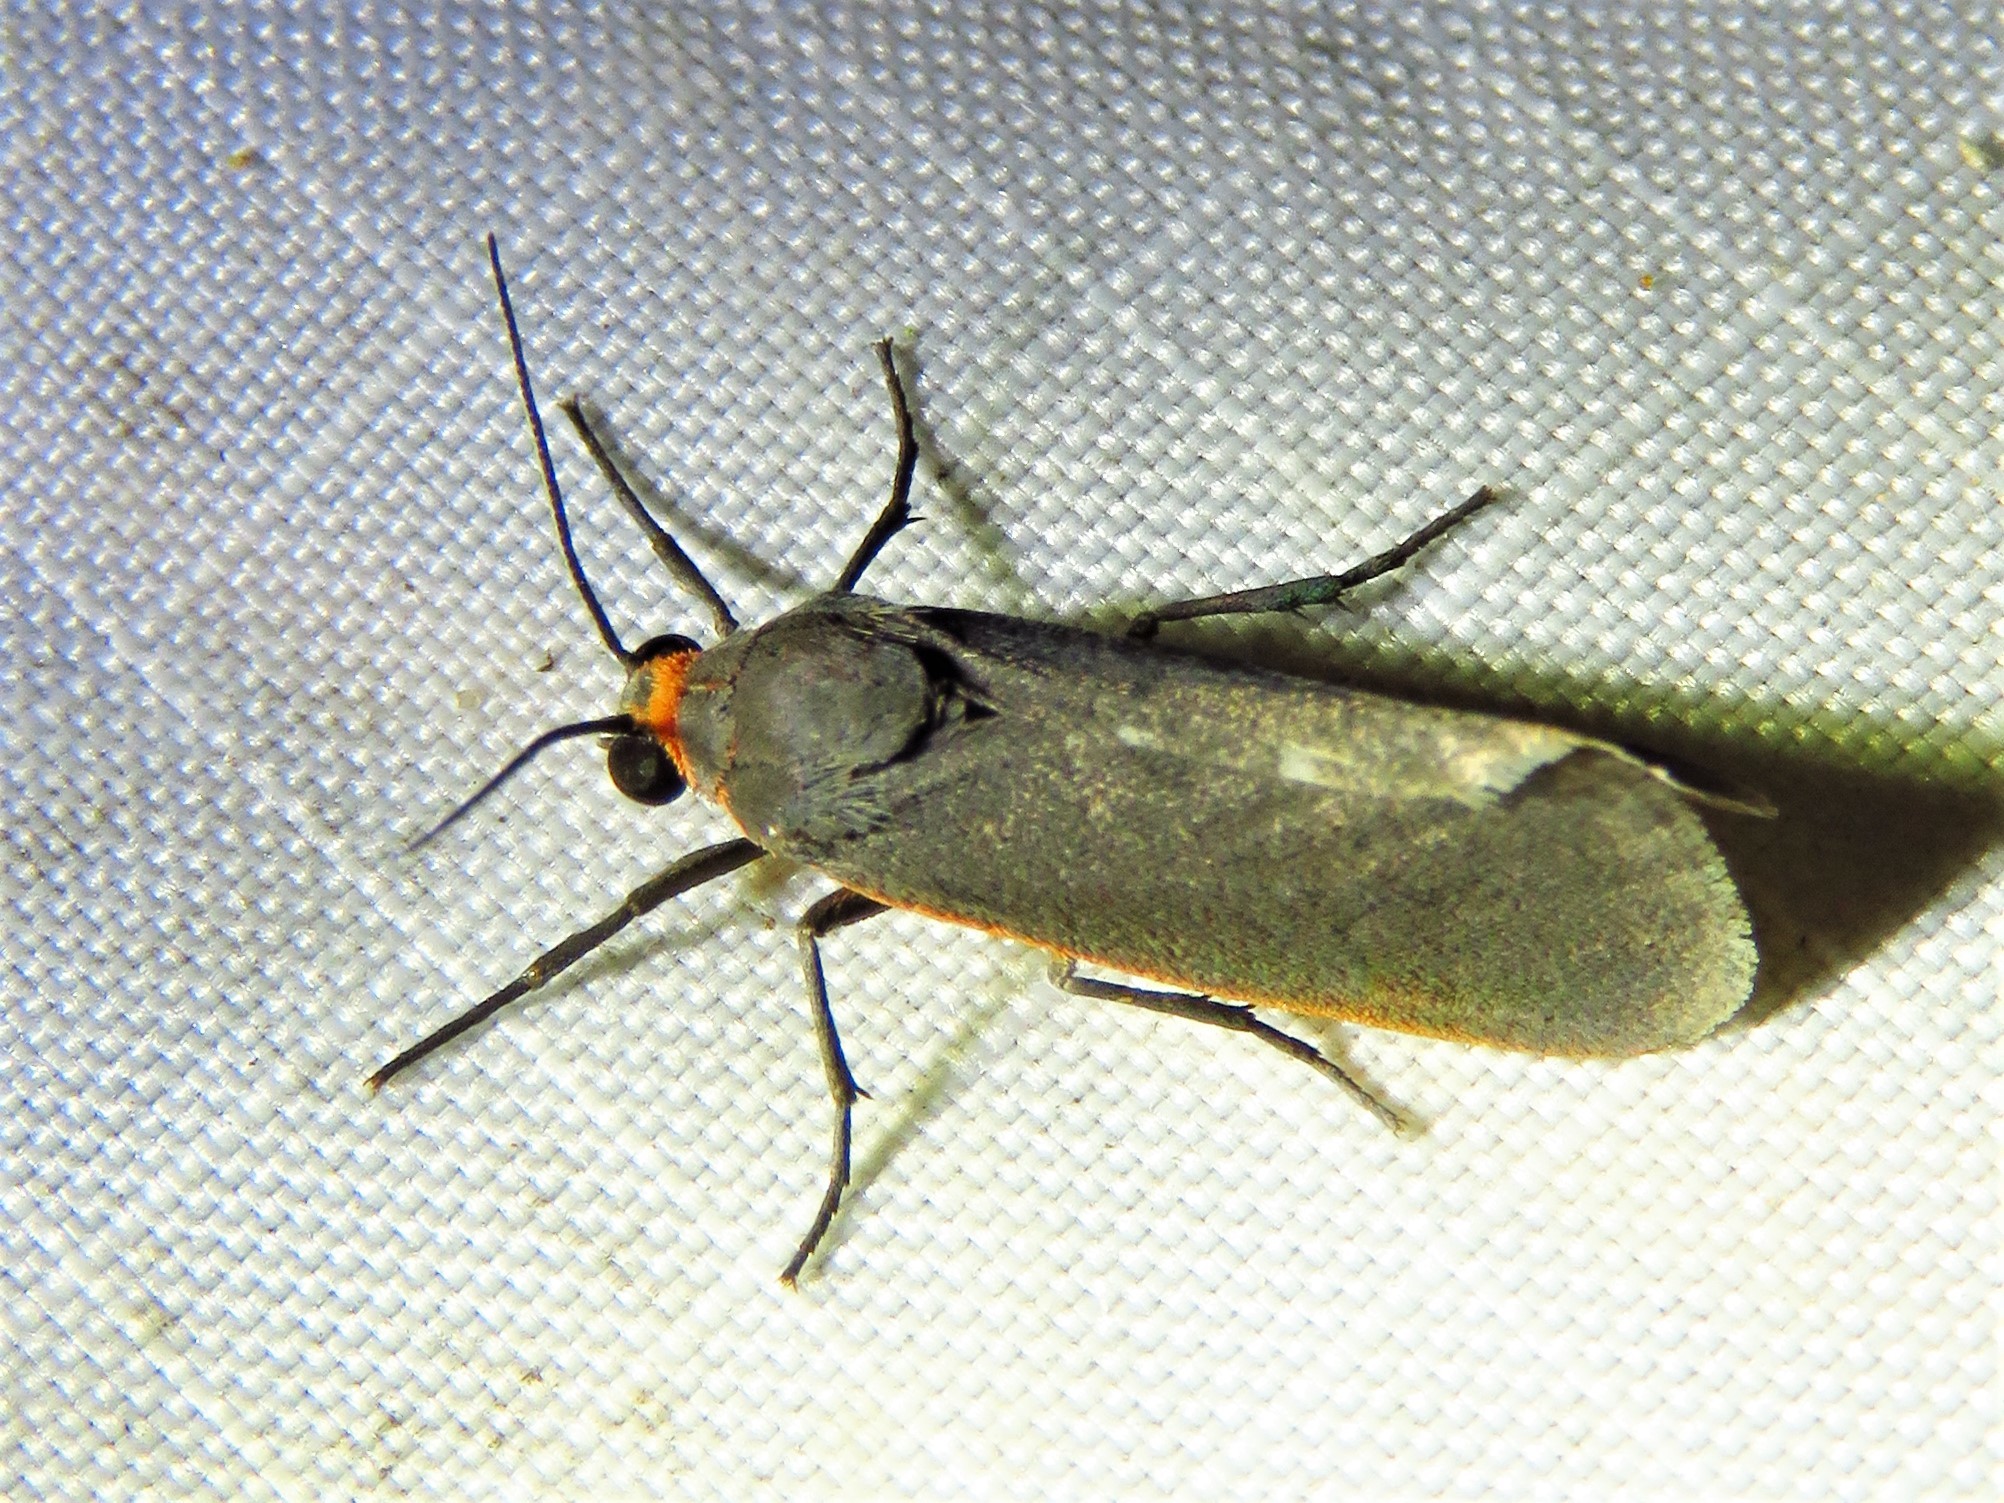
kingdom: Animalia
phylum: Arthropoda
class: Insecta
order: Lepidoptera
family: Erebidae
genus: Virbia
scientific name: Virbia laeta
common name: Joyful holomelina moth
